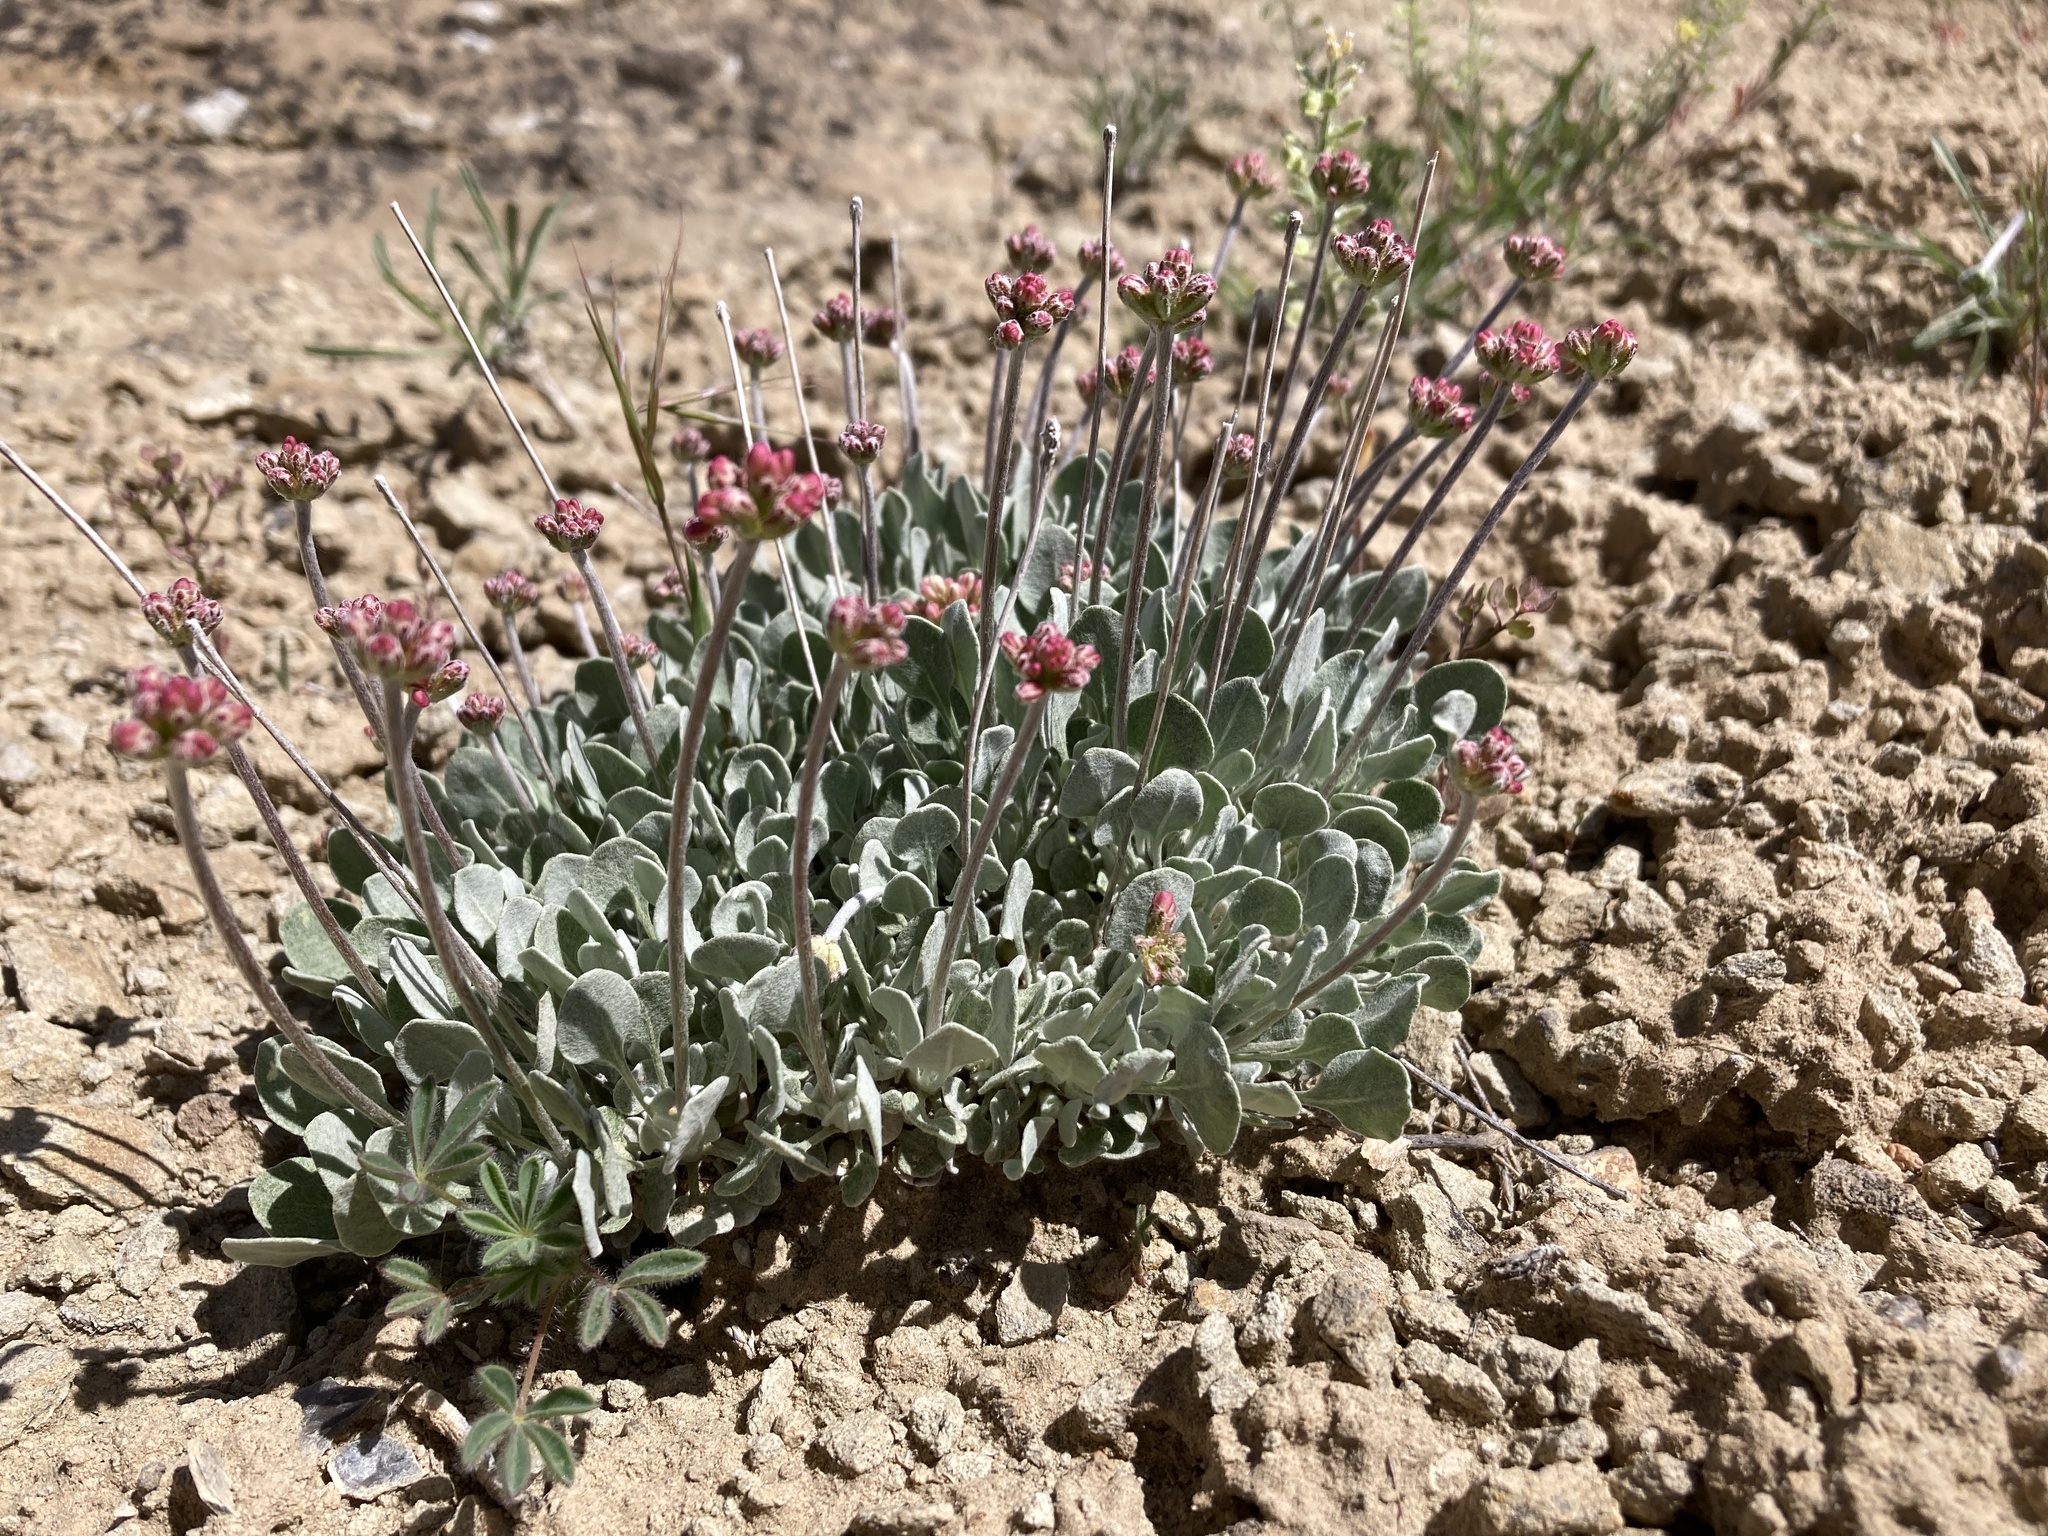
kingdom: Plantae
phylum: Tracheophyta
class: Magnoliopsida
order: Caryophyllales
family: Polygonaceae
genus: Eriogonum
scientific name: Eriogonum ovalifolium
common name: Cushion buckwheat
